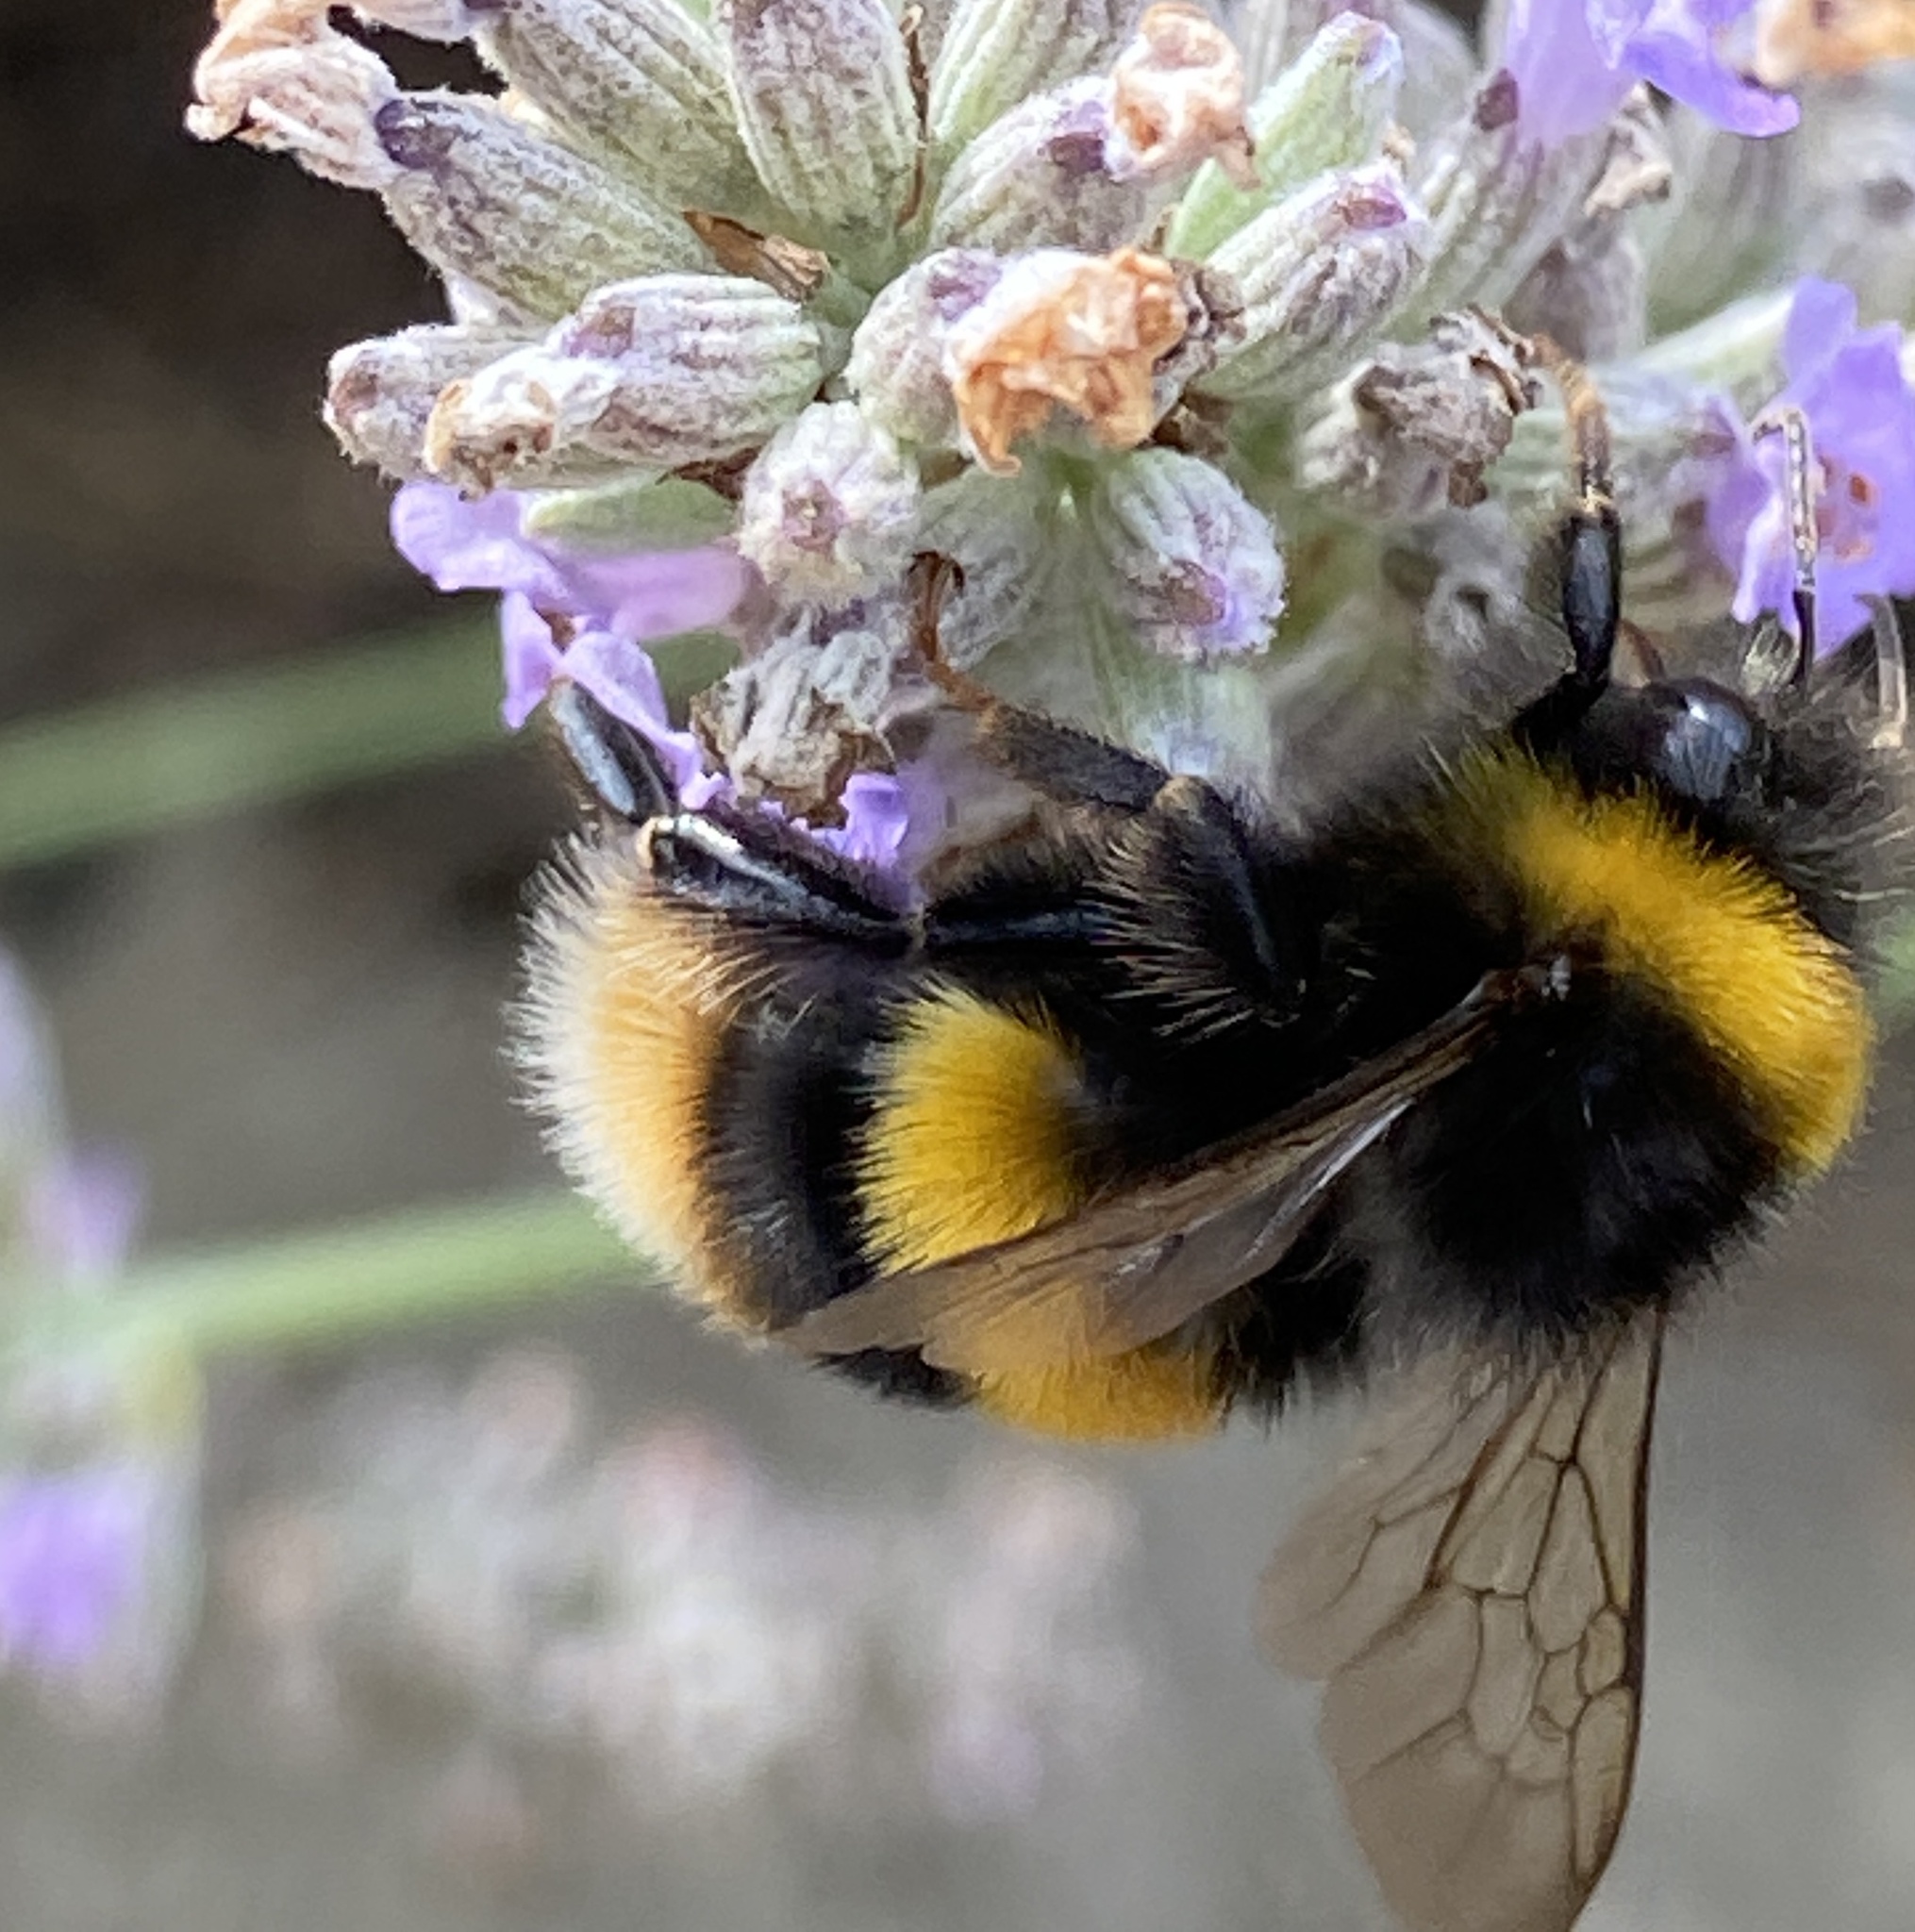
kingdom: Animalia
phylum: Arthropoda
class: Insecta
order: Hymenoptera
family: Apidae
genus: Bombus
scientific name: Bombus terrestris
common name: Buff-tailed bumblebee
